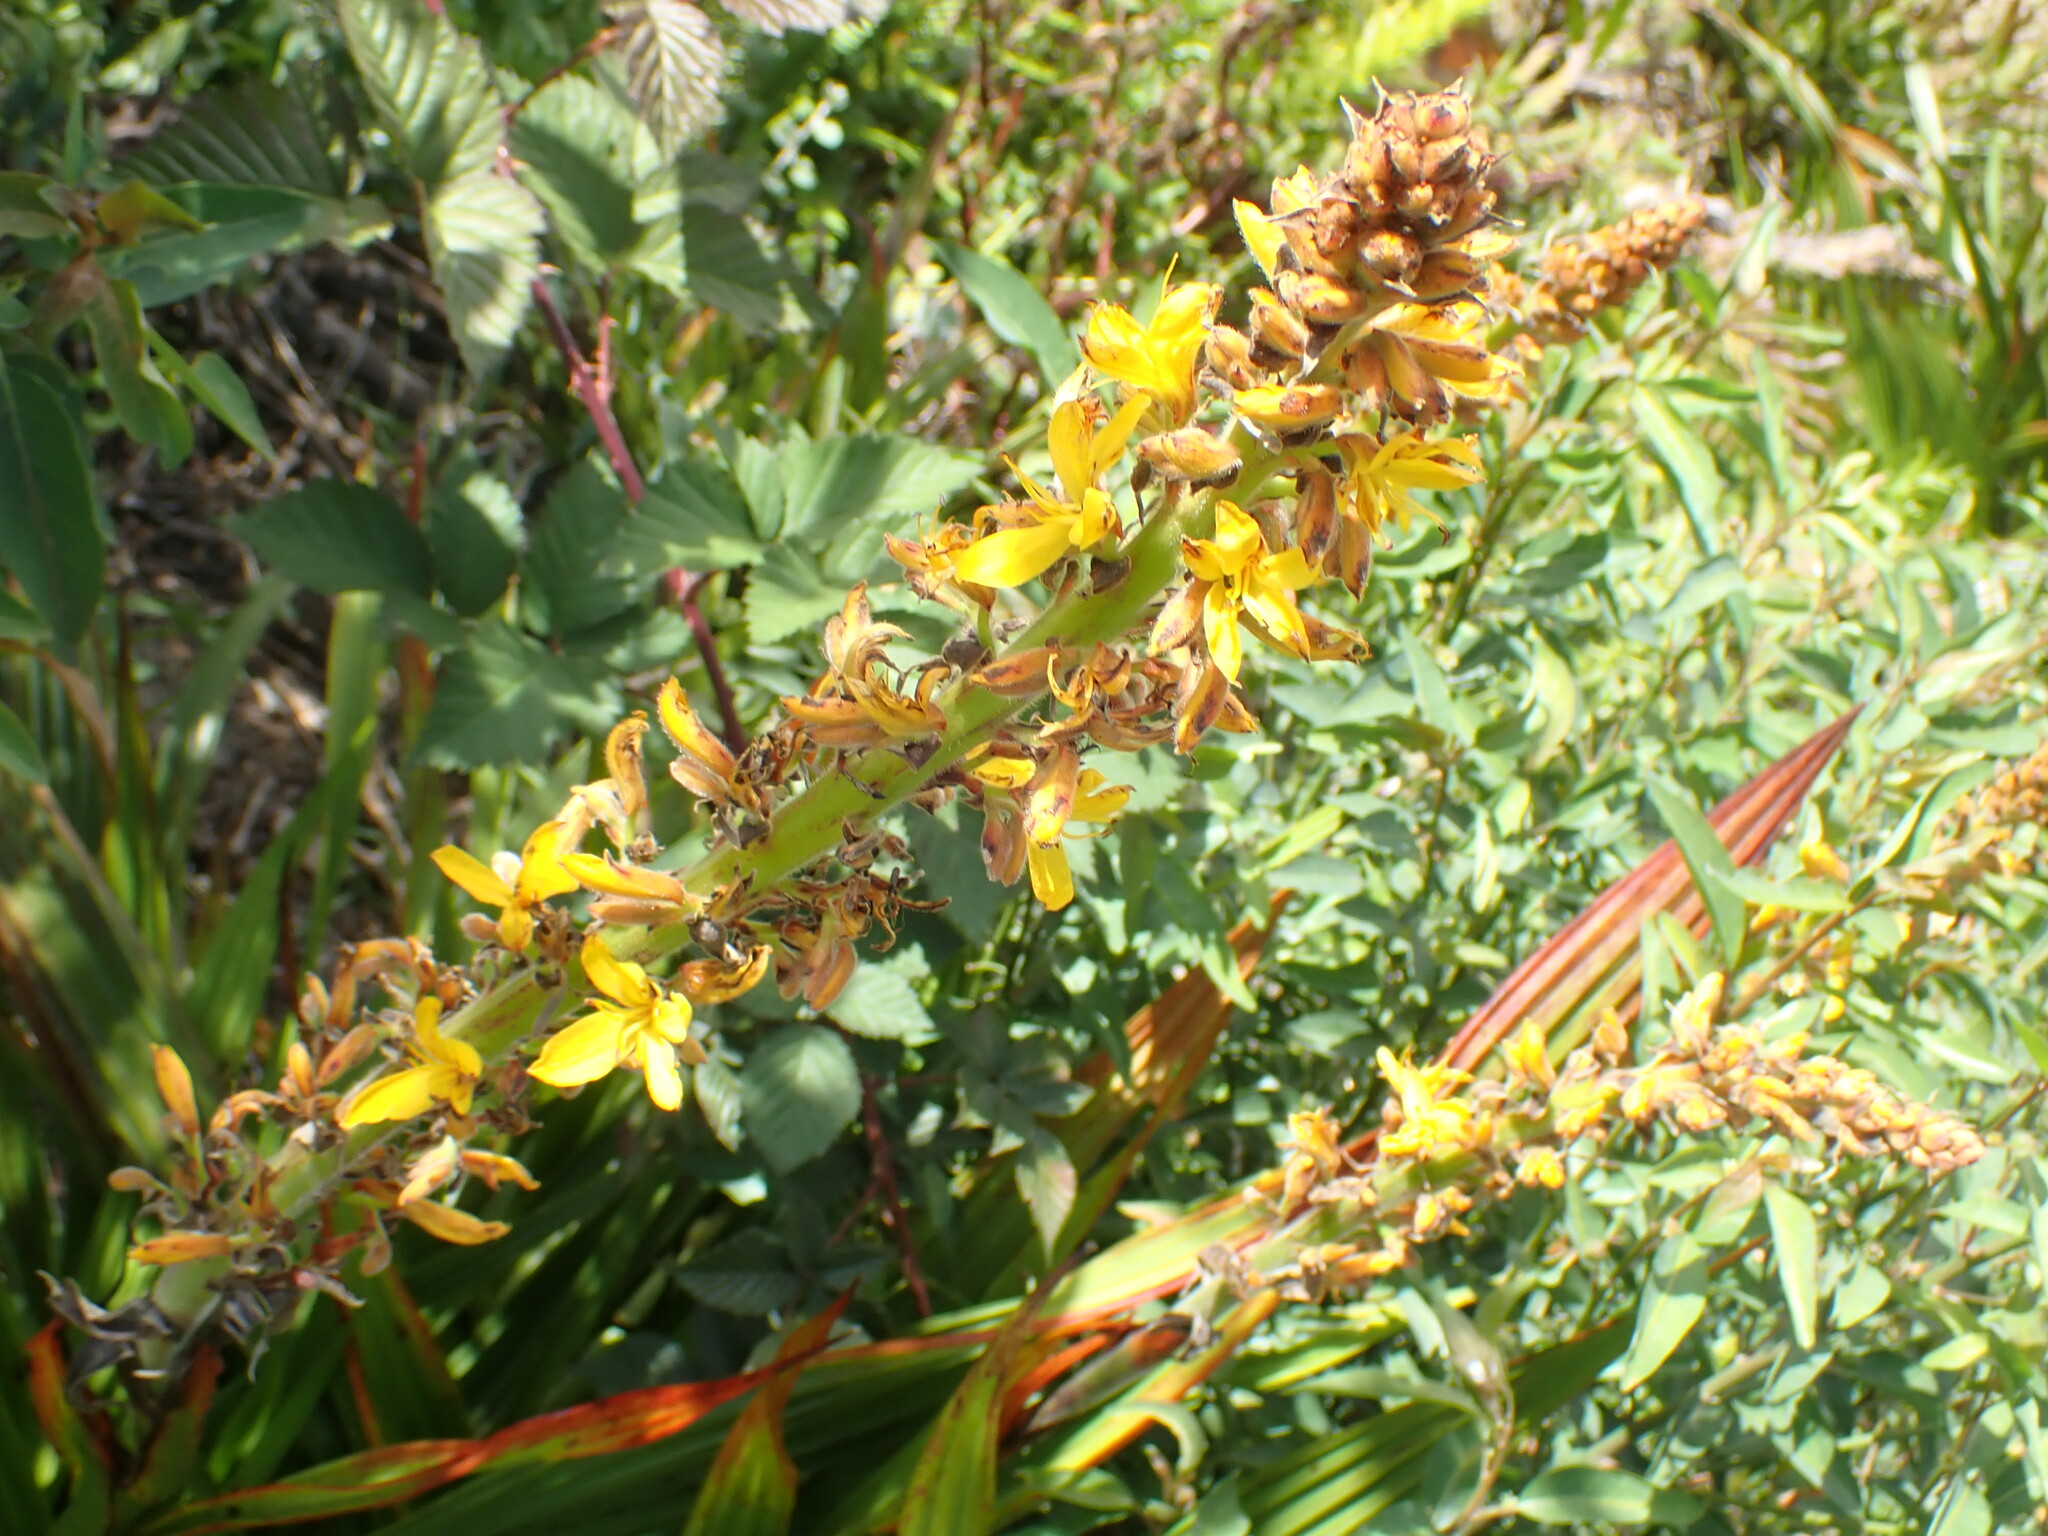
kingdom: Plantae
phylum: Tracheophyta
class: Liliopsida
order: Commelinales
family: Haemodoraceae
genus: Wachendorfia
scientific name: Wachendorfia thyrsiflora
